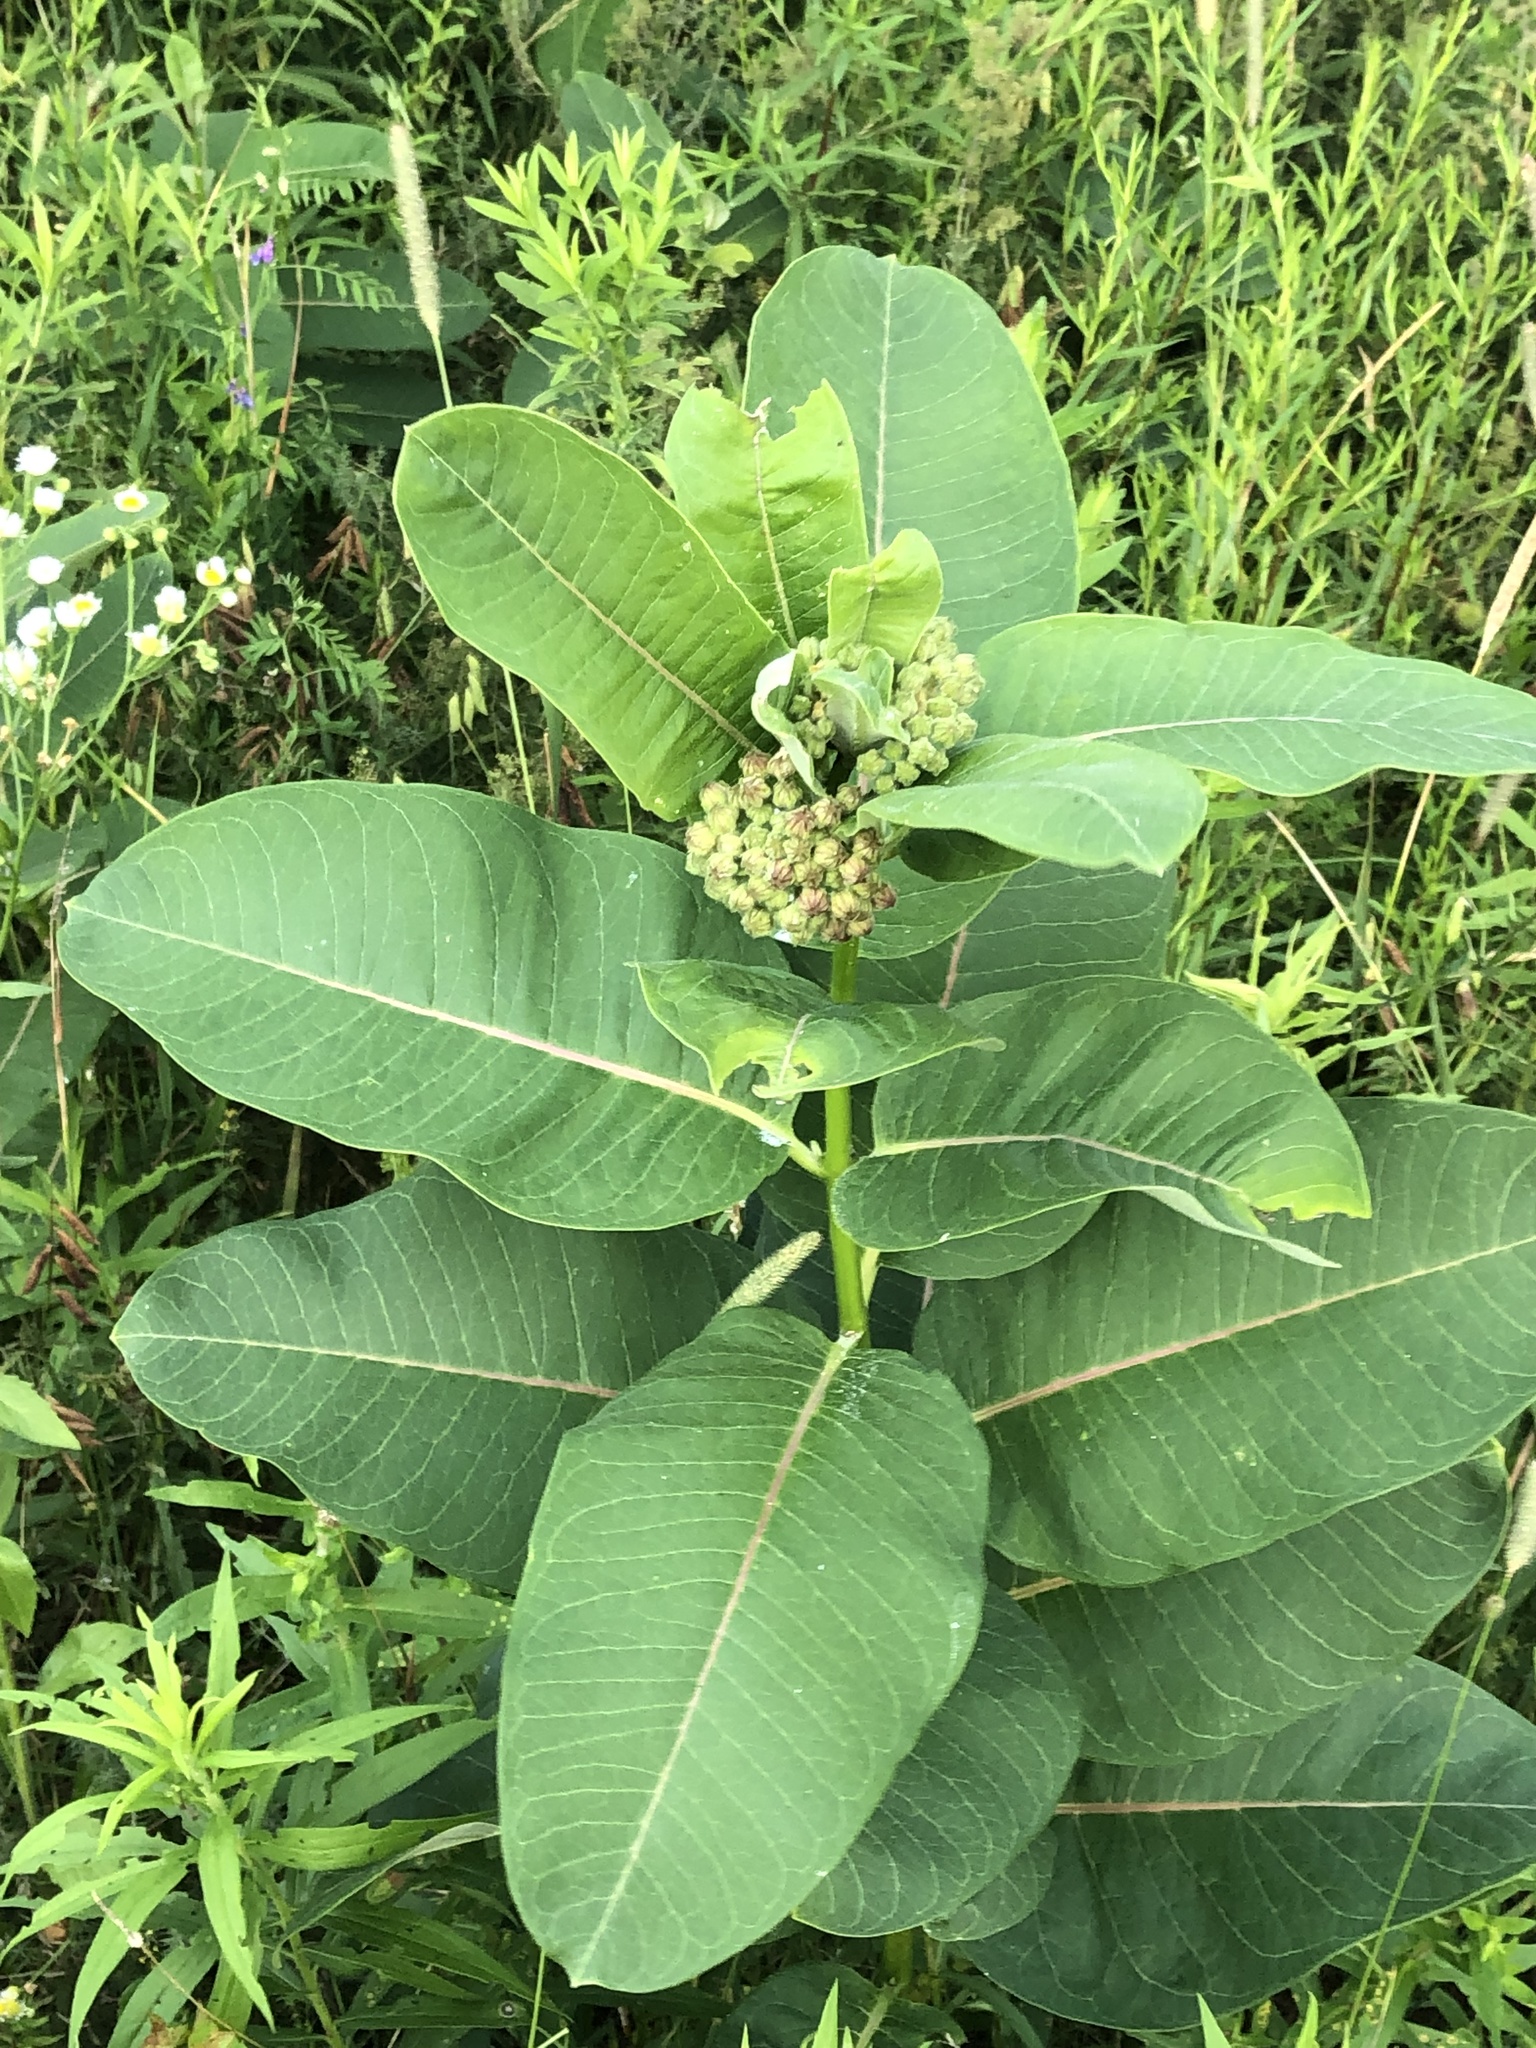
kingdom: Plantae
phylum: Tracheophyta
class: Magnoliopsida
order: Gentianales
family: Apocynaceae
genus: Asclepias
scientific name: Asclepias syriaca
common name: Common milkweed
